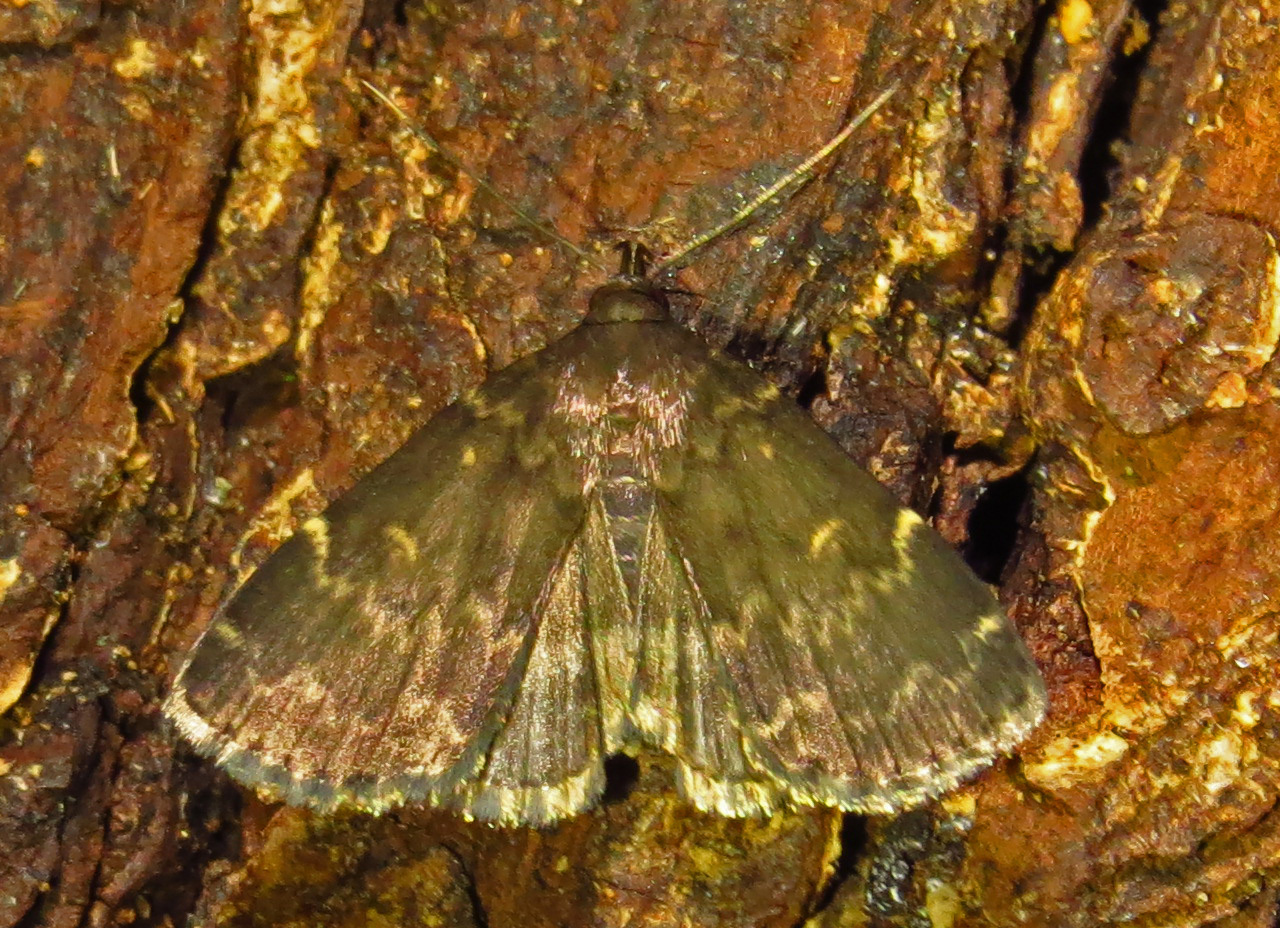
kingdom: Animalia
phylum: Arthropoda
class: Insecta
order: Lepidoptera
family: Erebidae
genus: Idia
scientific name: Idia lubricalis
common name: Twin-striped tabby
